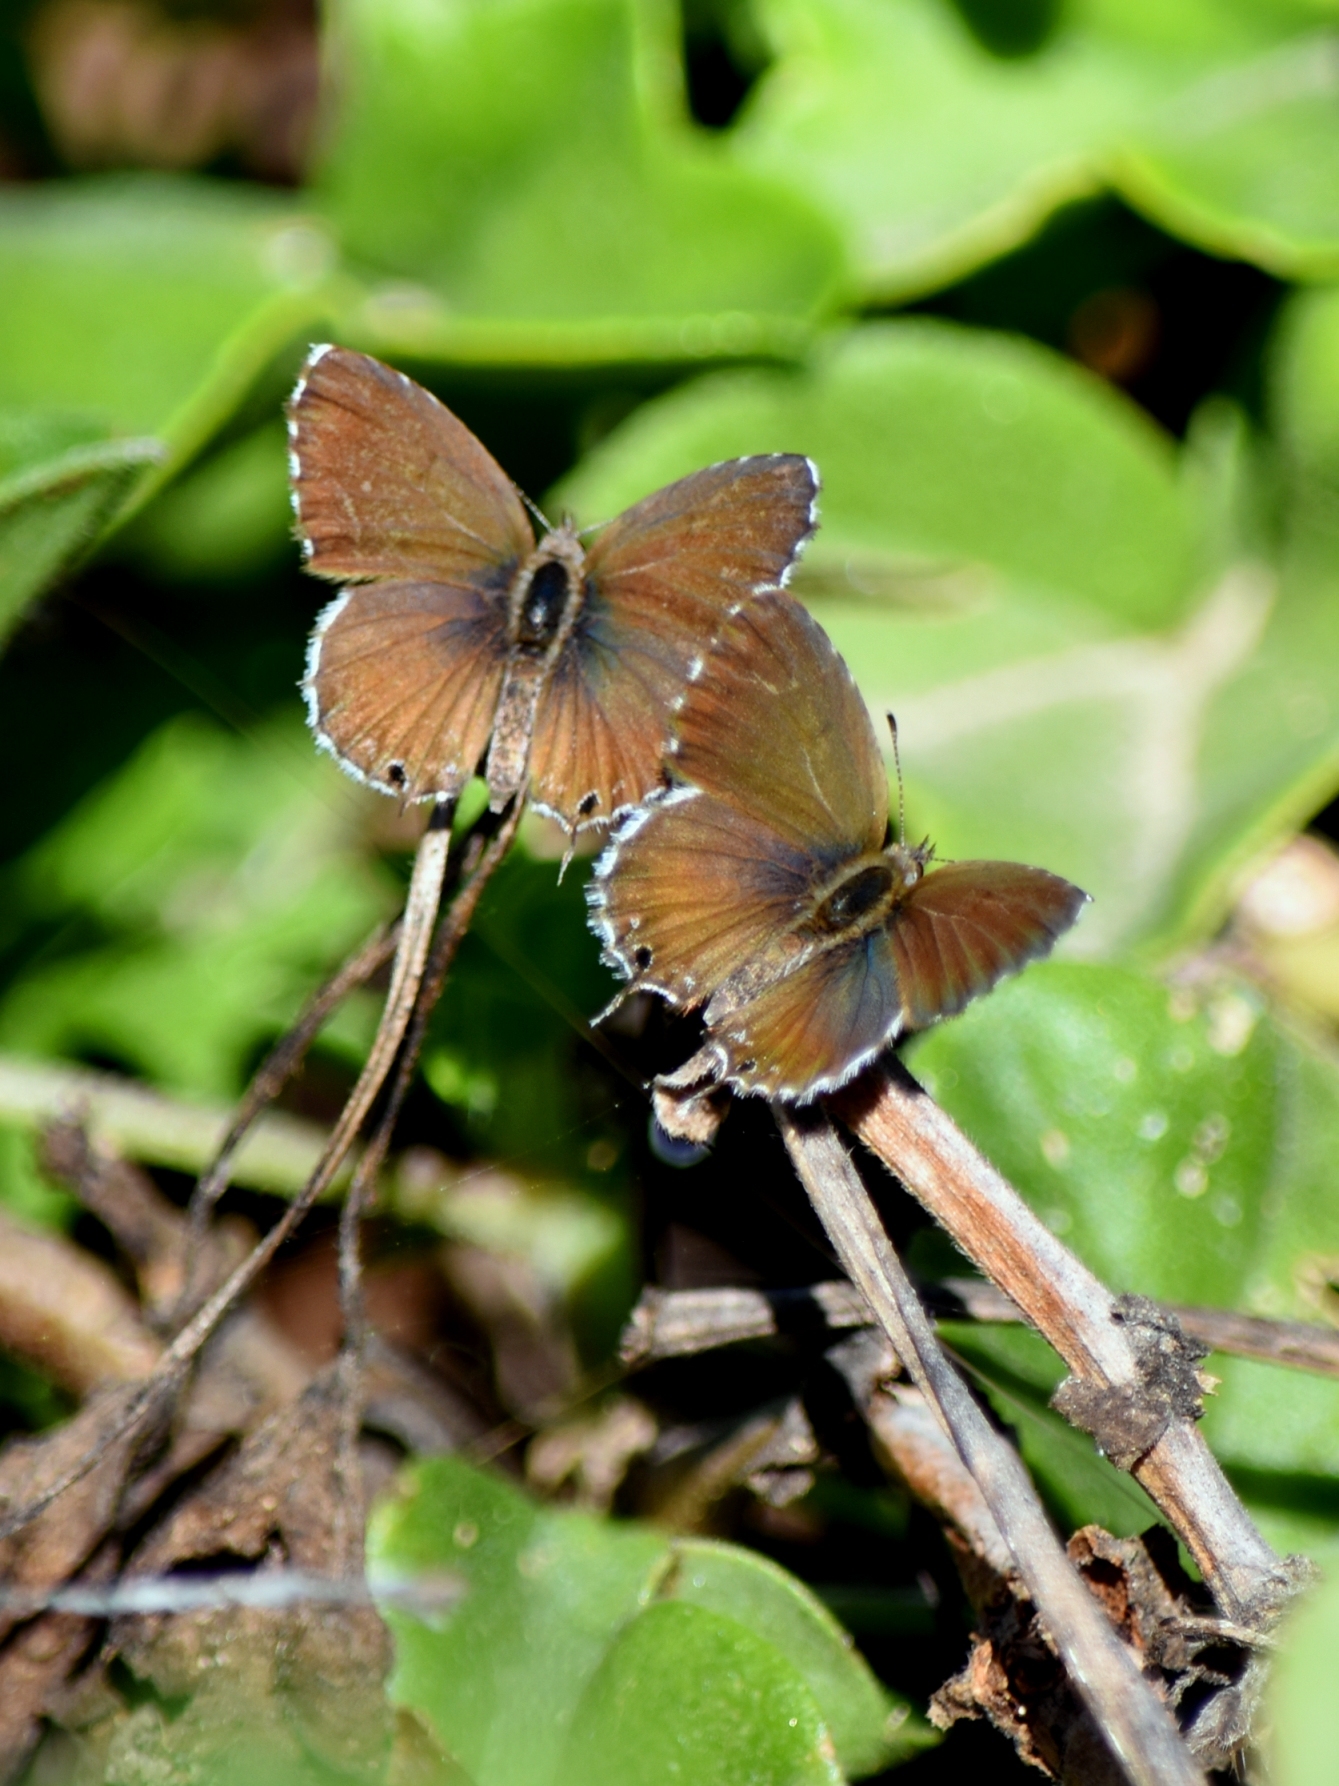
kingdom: Animalia
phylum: Arthropoda
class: Insecta
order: Lepidoptera
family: Lycaenidae
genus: Cacyreus
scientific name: Cacyreus marshalli
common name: Geranium bronze
